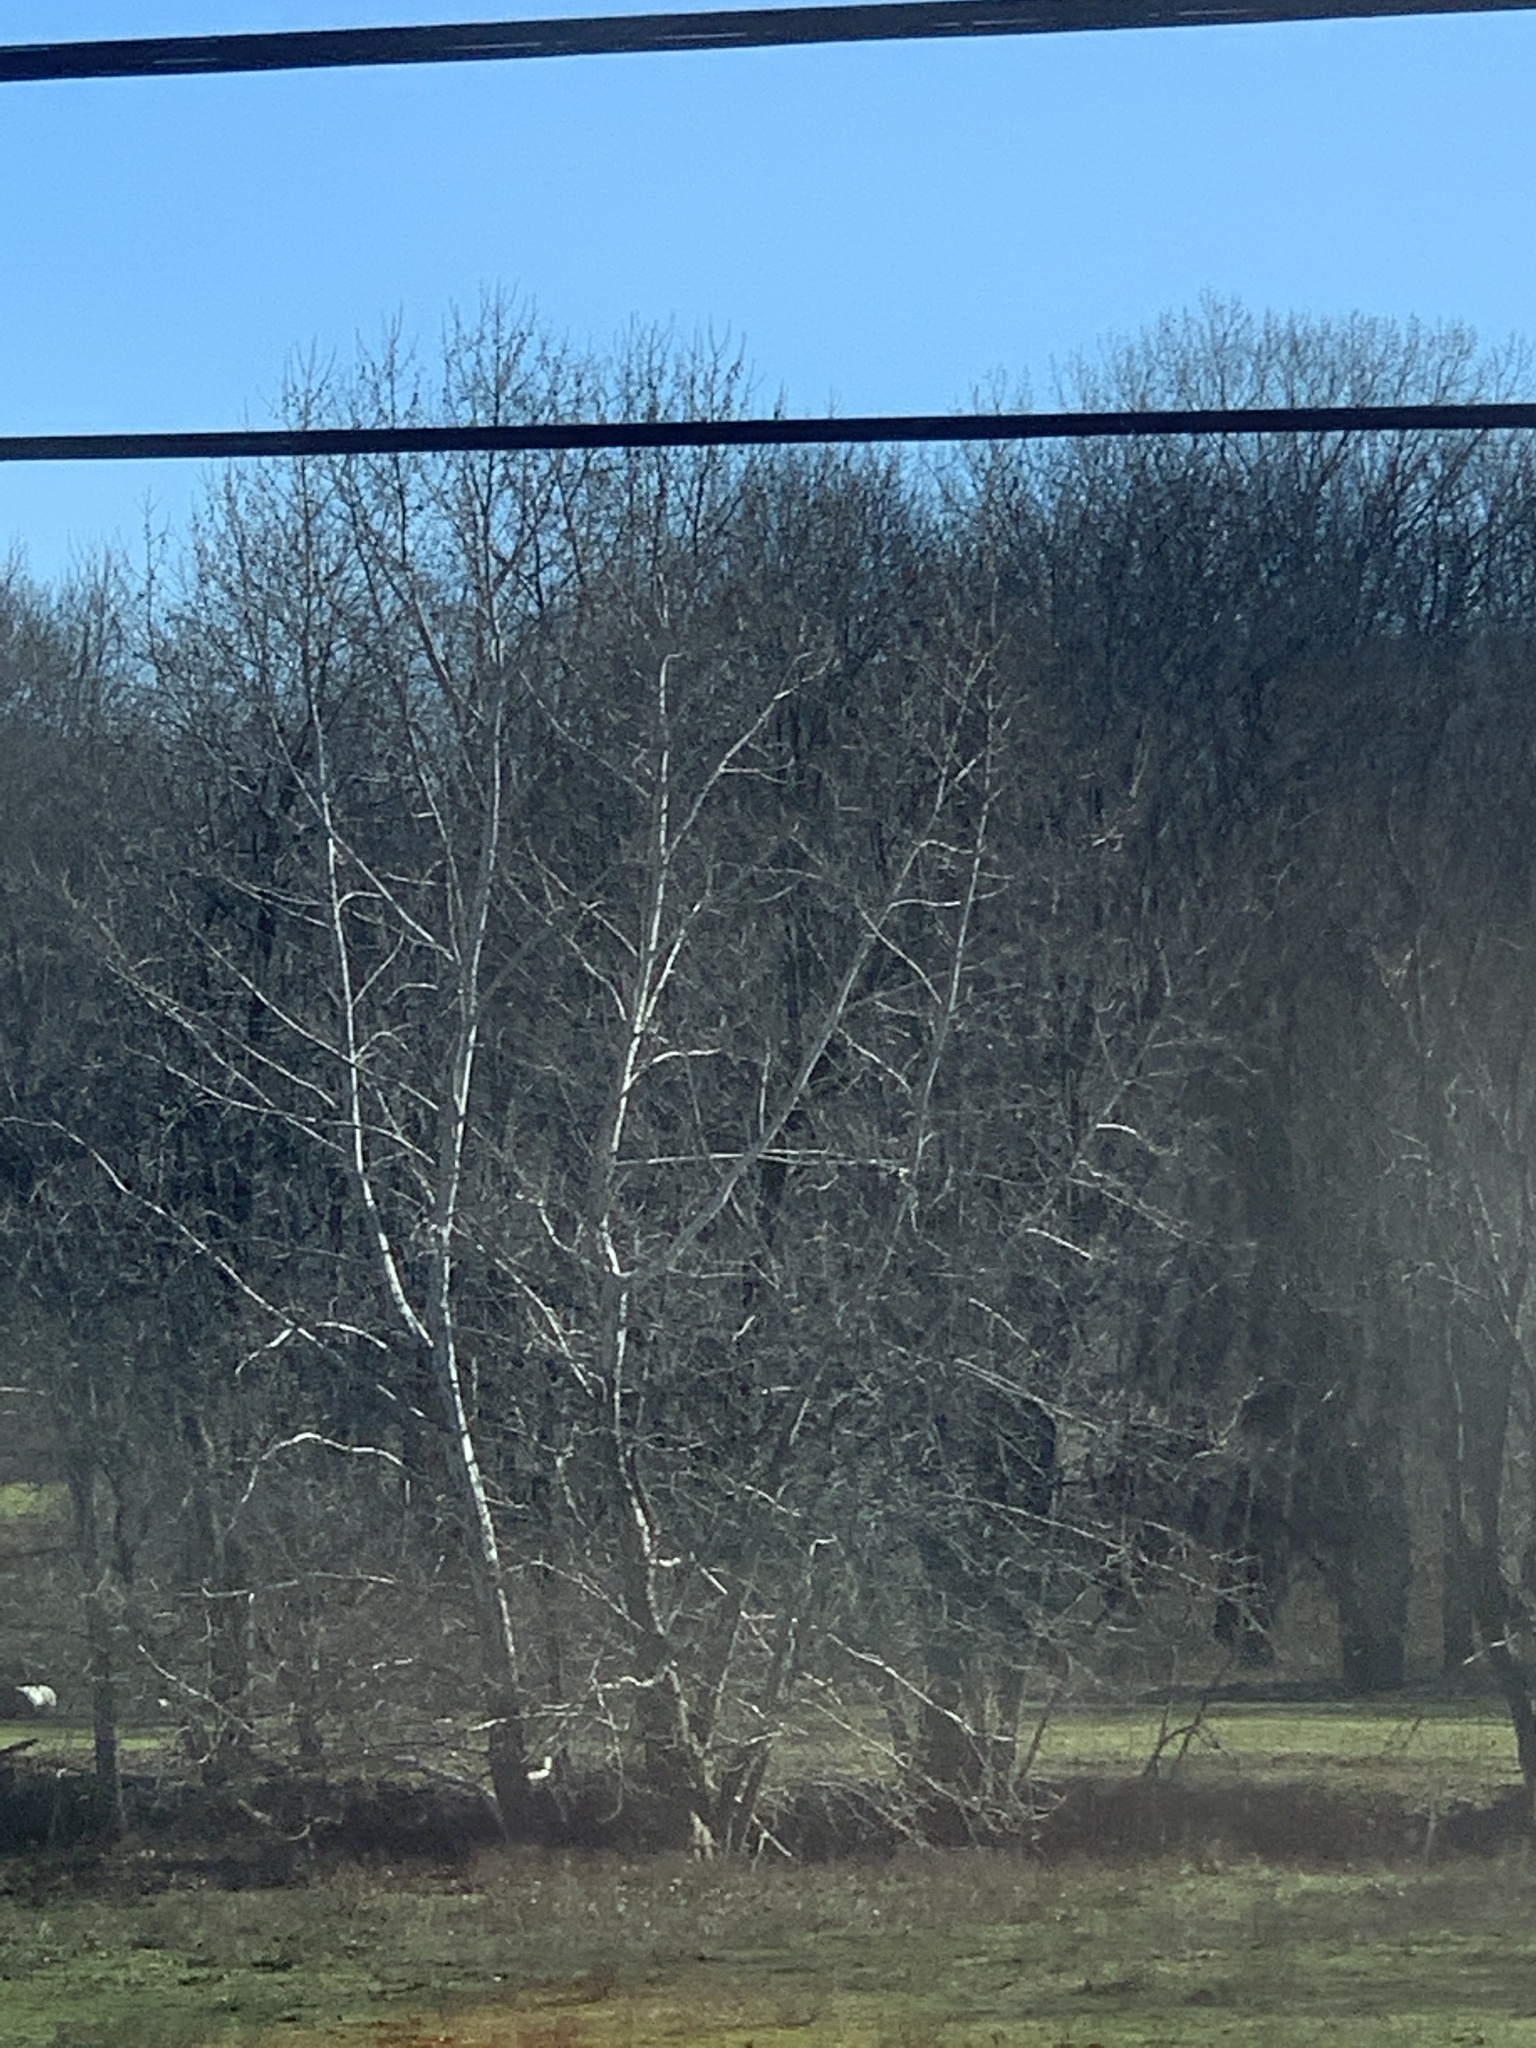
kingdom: Plantae
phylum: Tracheophyta
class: Magnoliopsida
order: Proteales
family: Platanaceae
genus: Platanus
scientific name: Platanus occidentalis
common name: American sycamore
